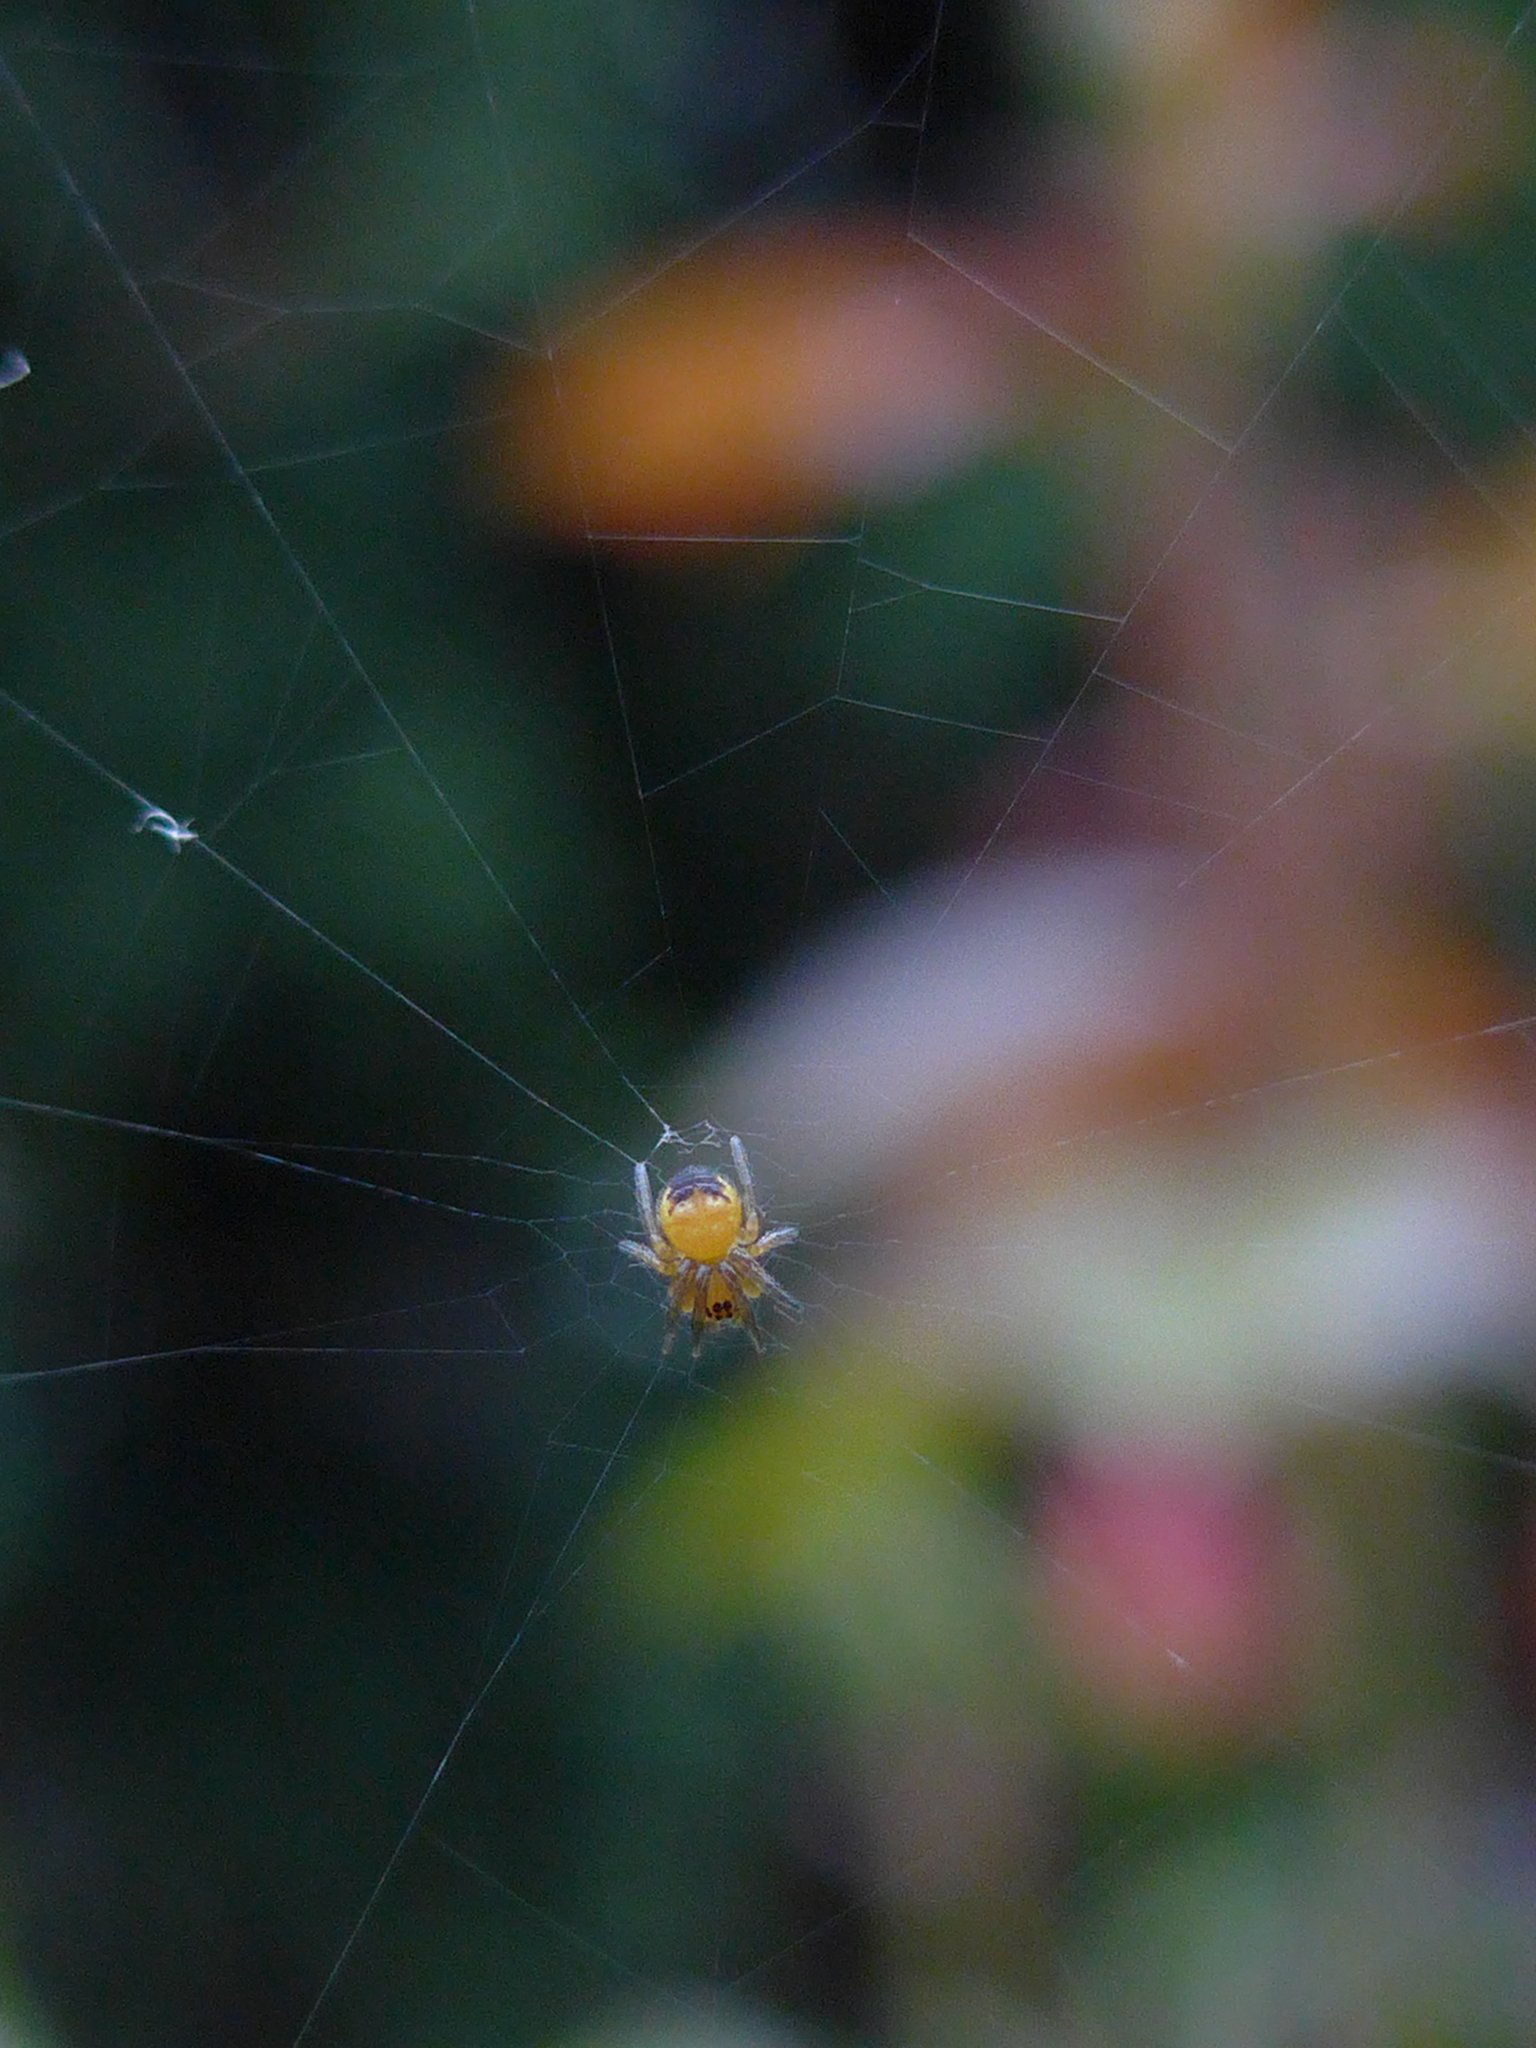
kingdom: Animalia
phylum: Arthropoda
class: Arachnida
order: Araneae
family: Araneidae
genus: Araneus
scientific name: Araneus diadematus
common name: Cross orbweaver
